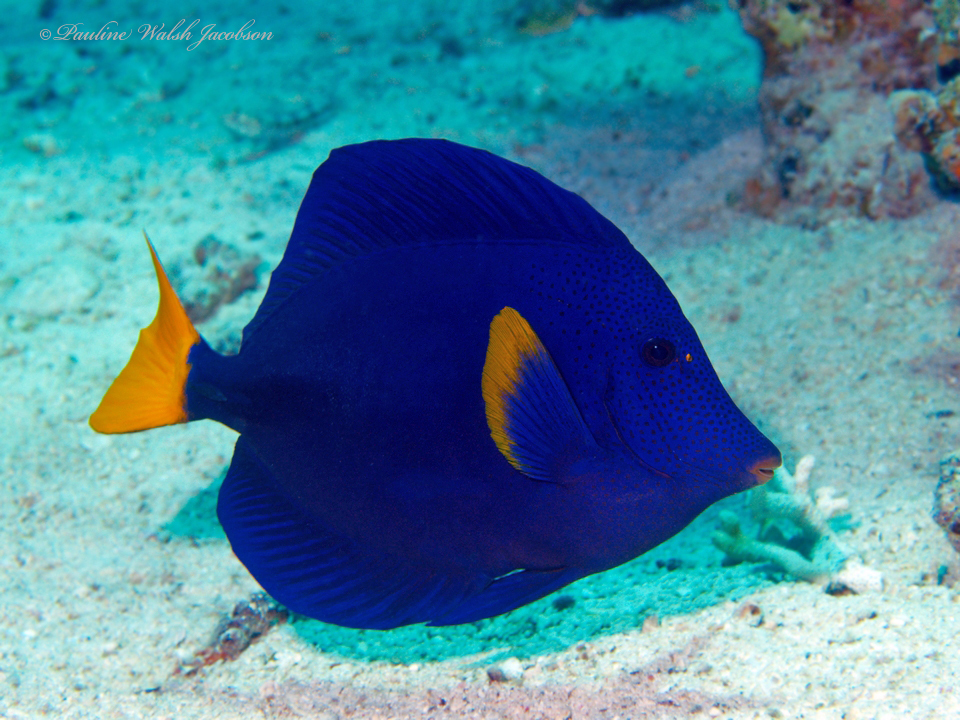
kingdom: Animalia
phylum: Chordata
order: Perciformes
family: Acanthuridae
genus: Zebrasoma
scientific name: Zebrasoma xanthurum
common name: Purple tang
